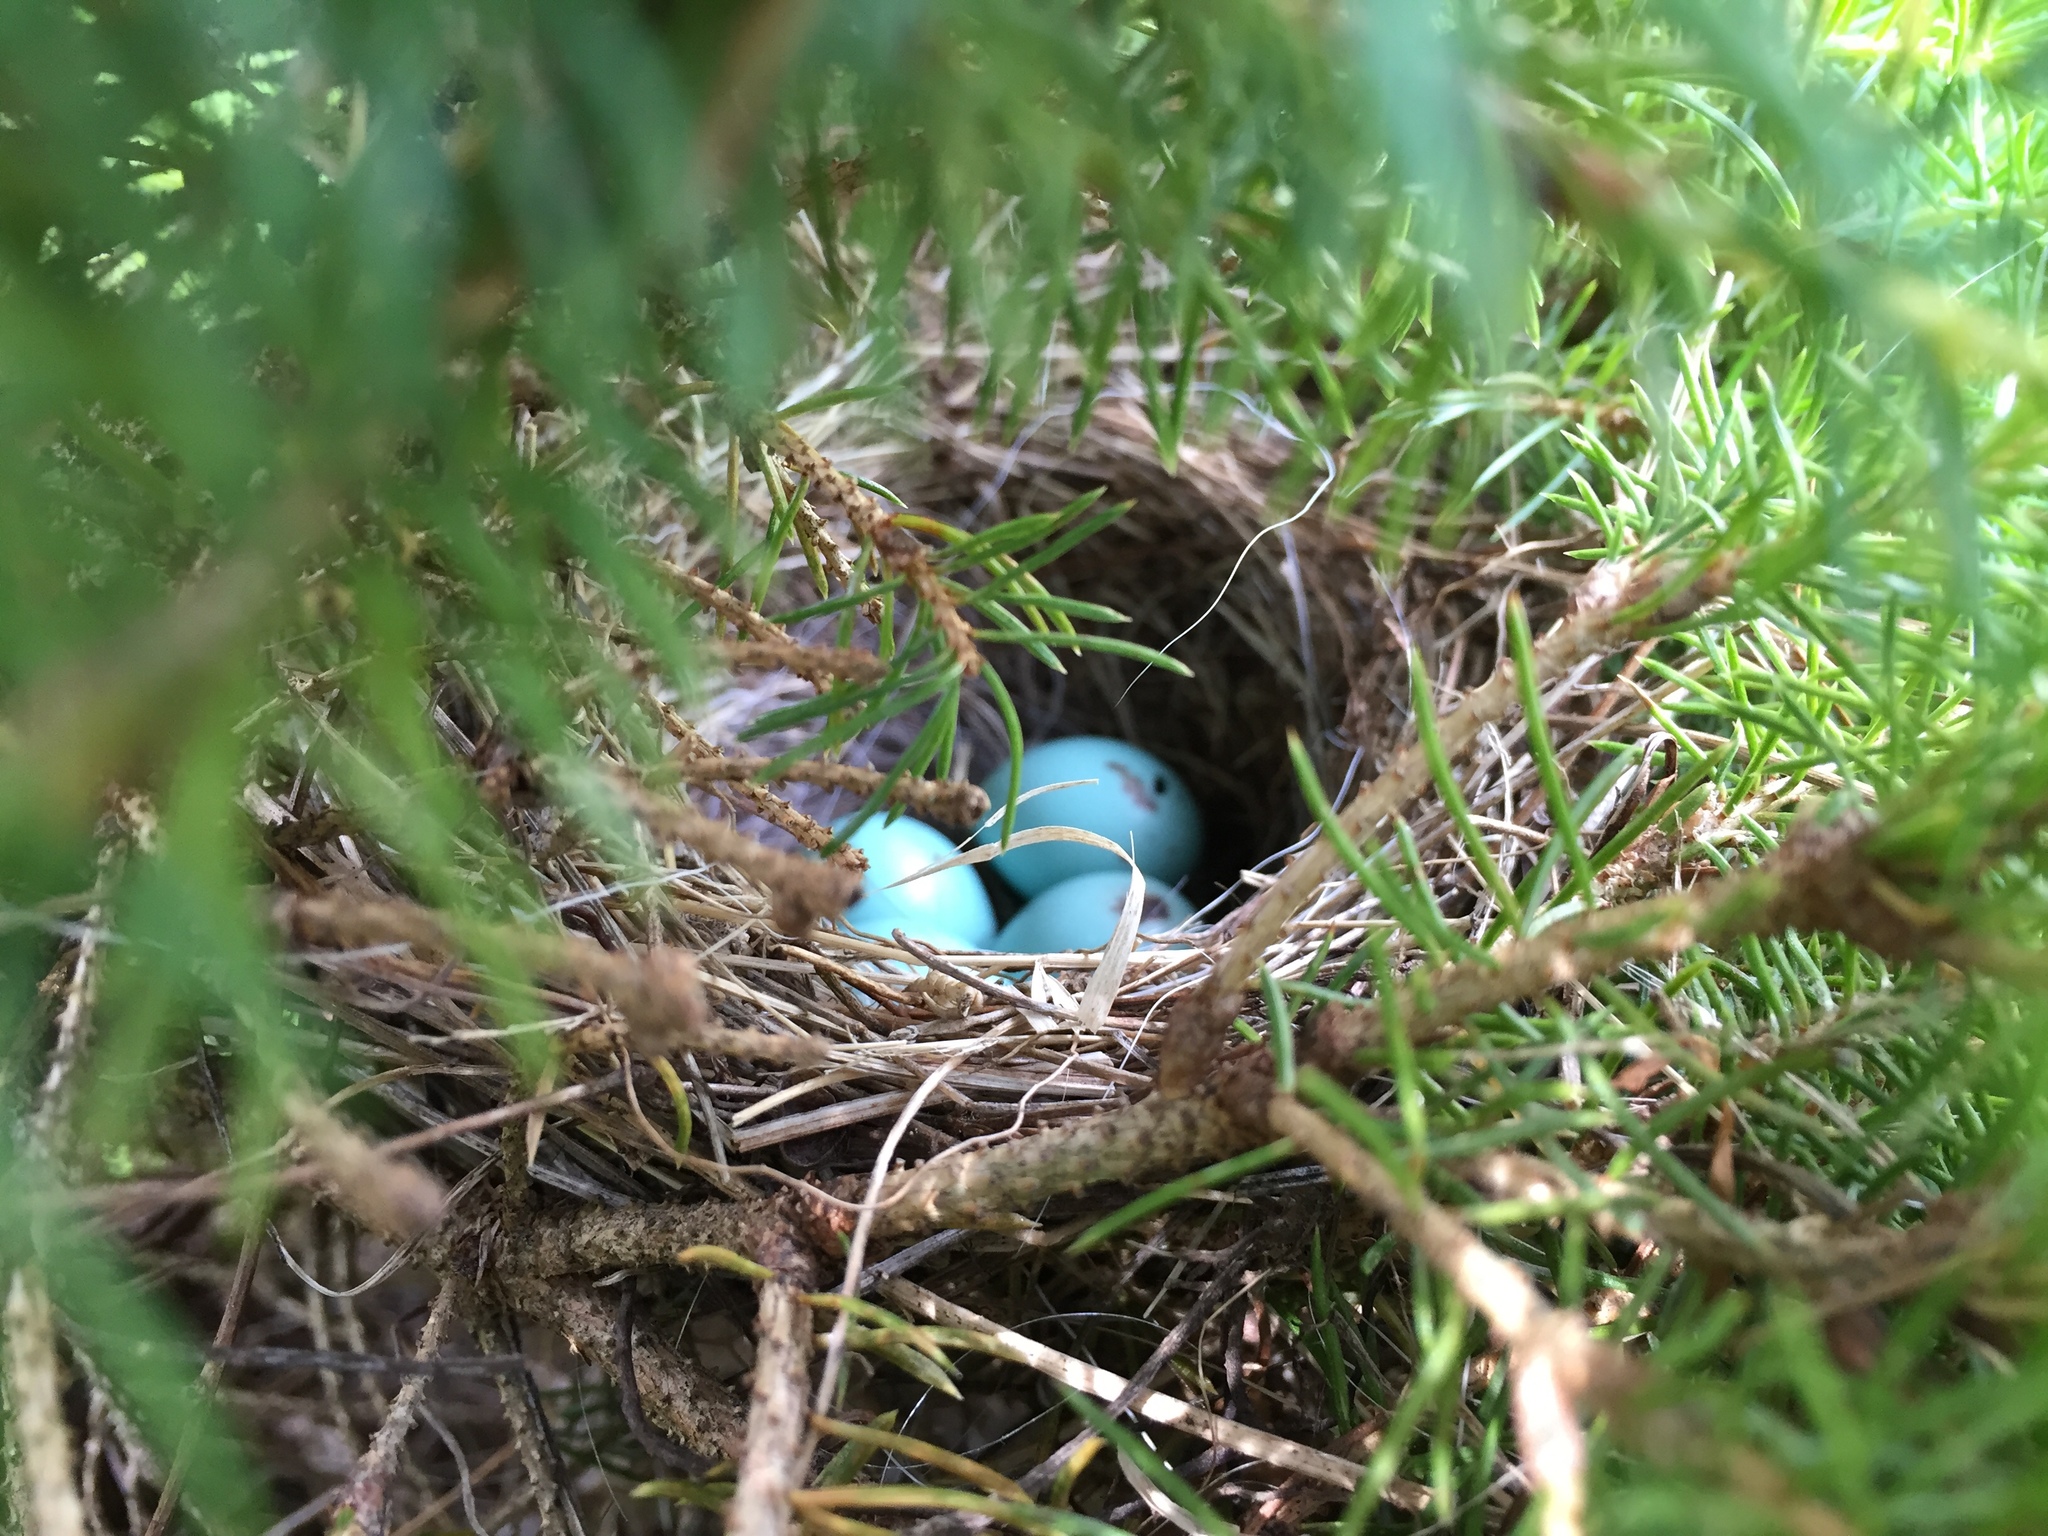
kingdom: Animalia
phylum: Chordata
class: Aves
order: Passeriformes
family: Passerellidae
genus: Spizella
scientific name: Spizella passerina
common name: Chipping sparrow
